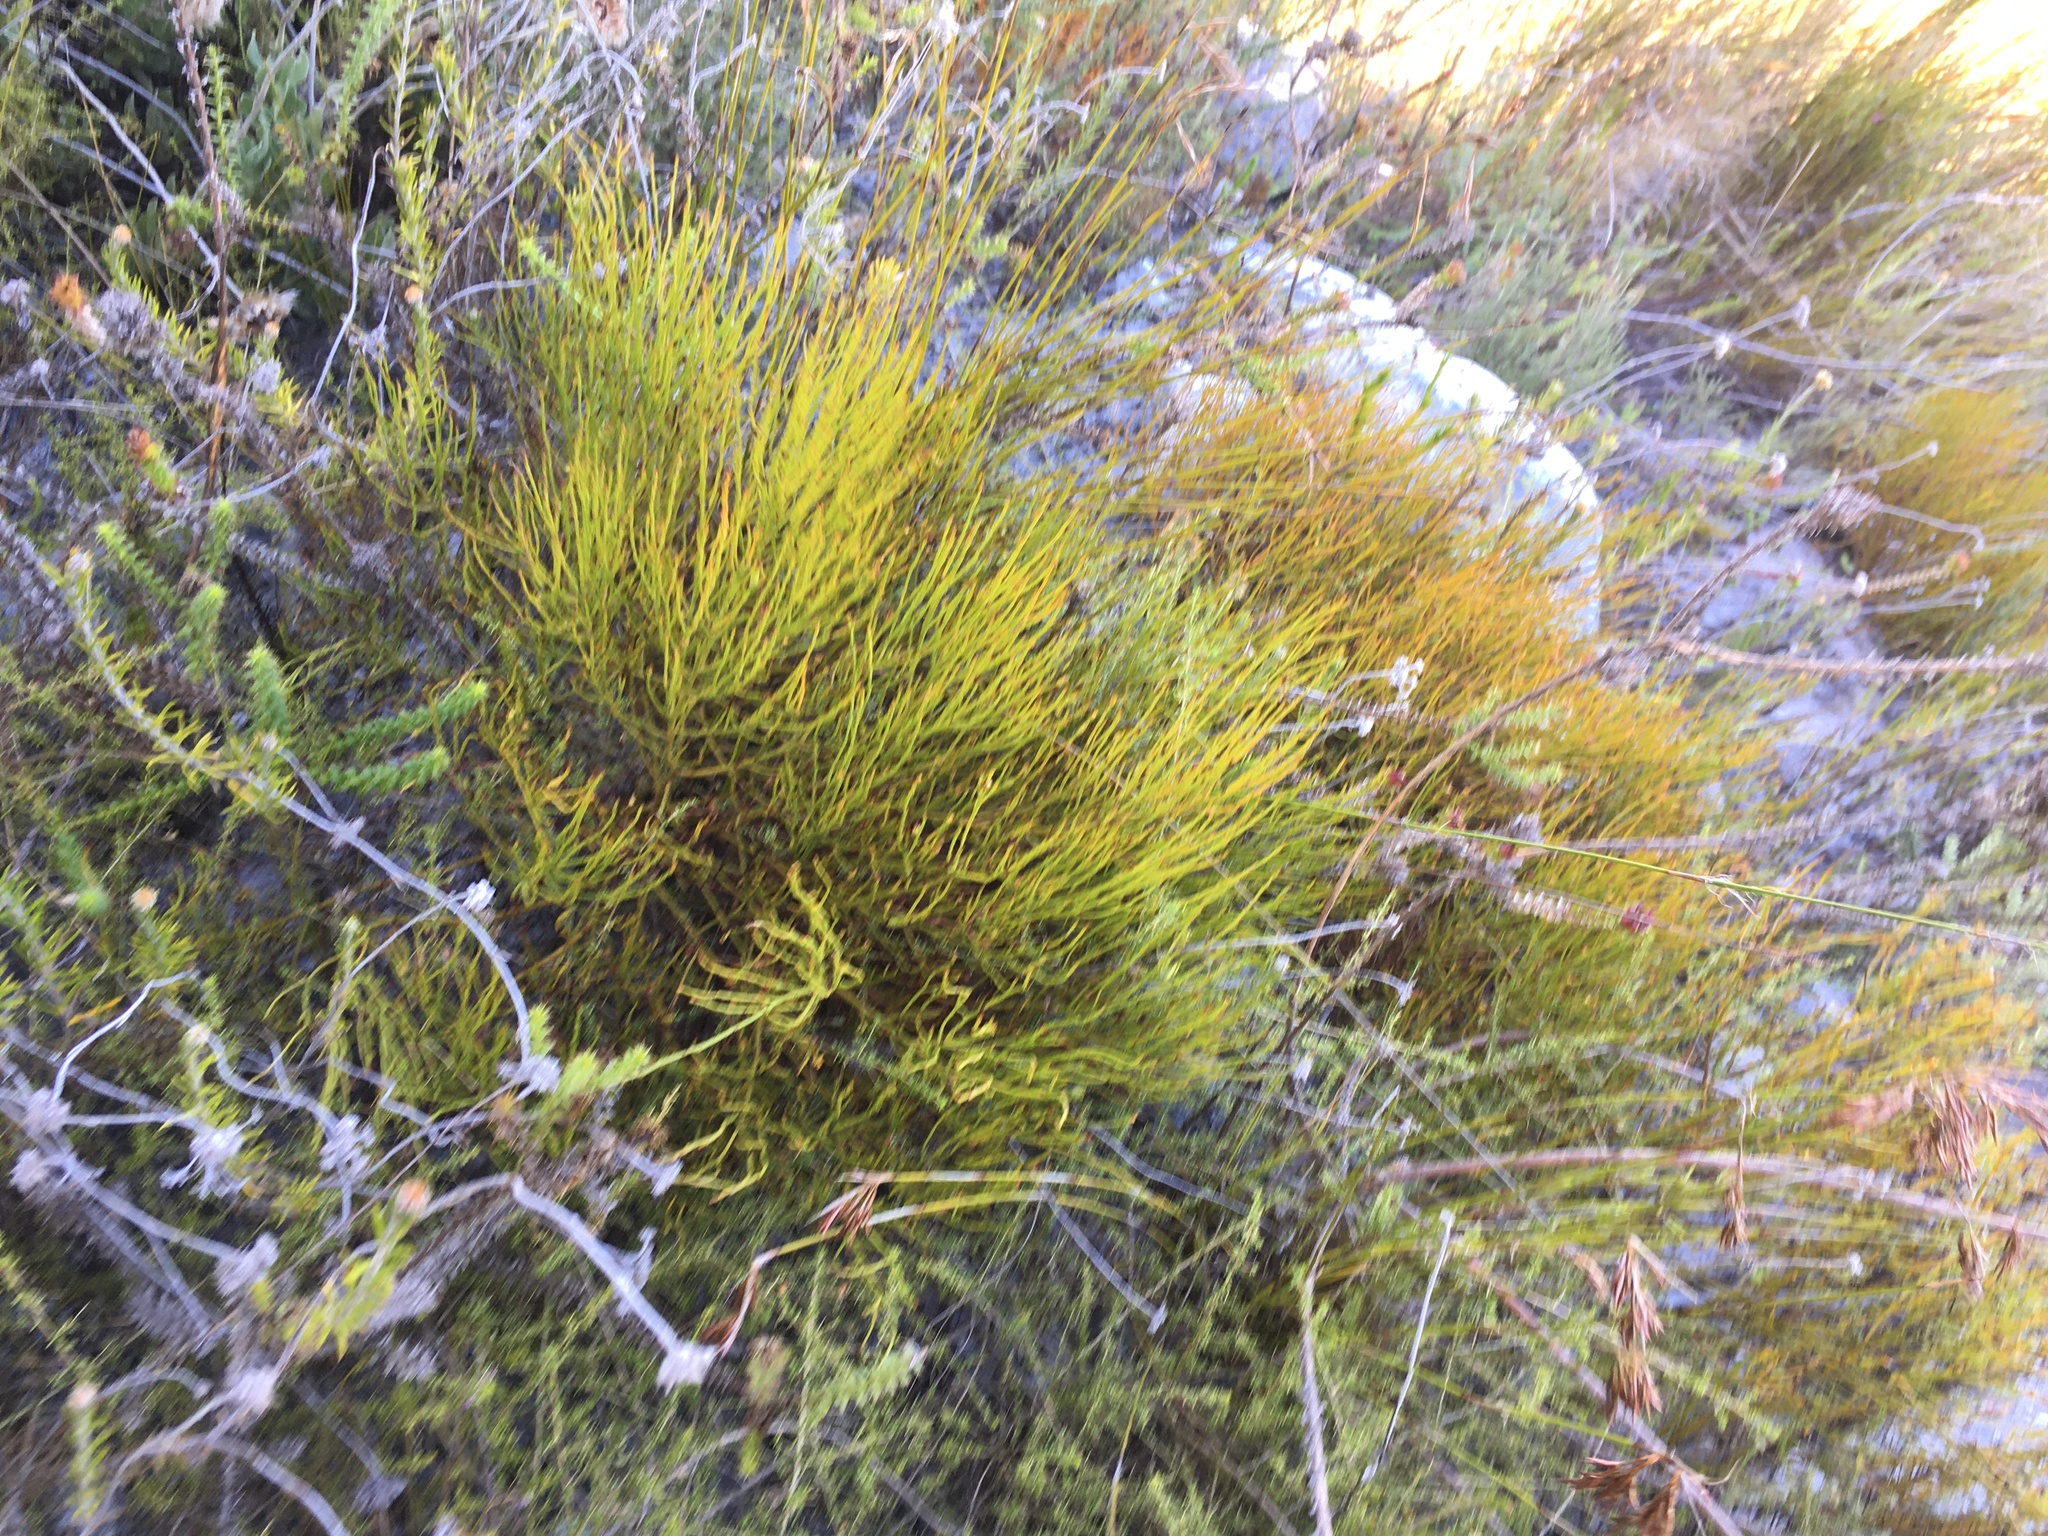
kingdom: Plantae
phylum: Tracheophyta
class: Magnoliopsida
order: Santalales
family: Thesiaceae
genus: Thesium
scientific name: Thesium euphrasioides
